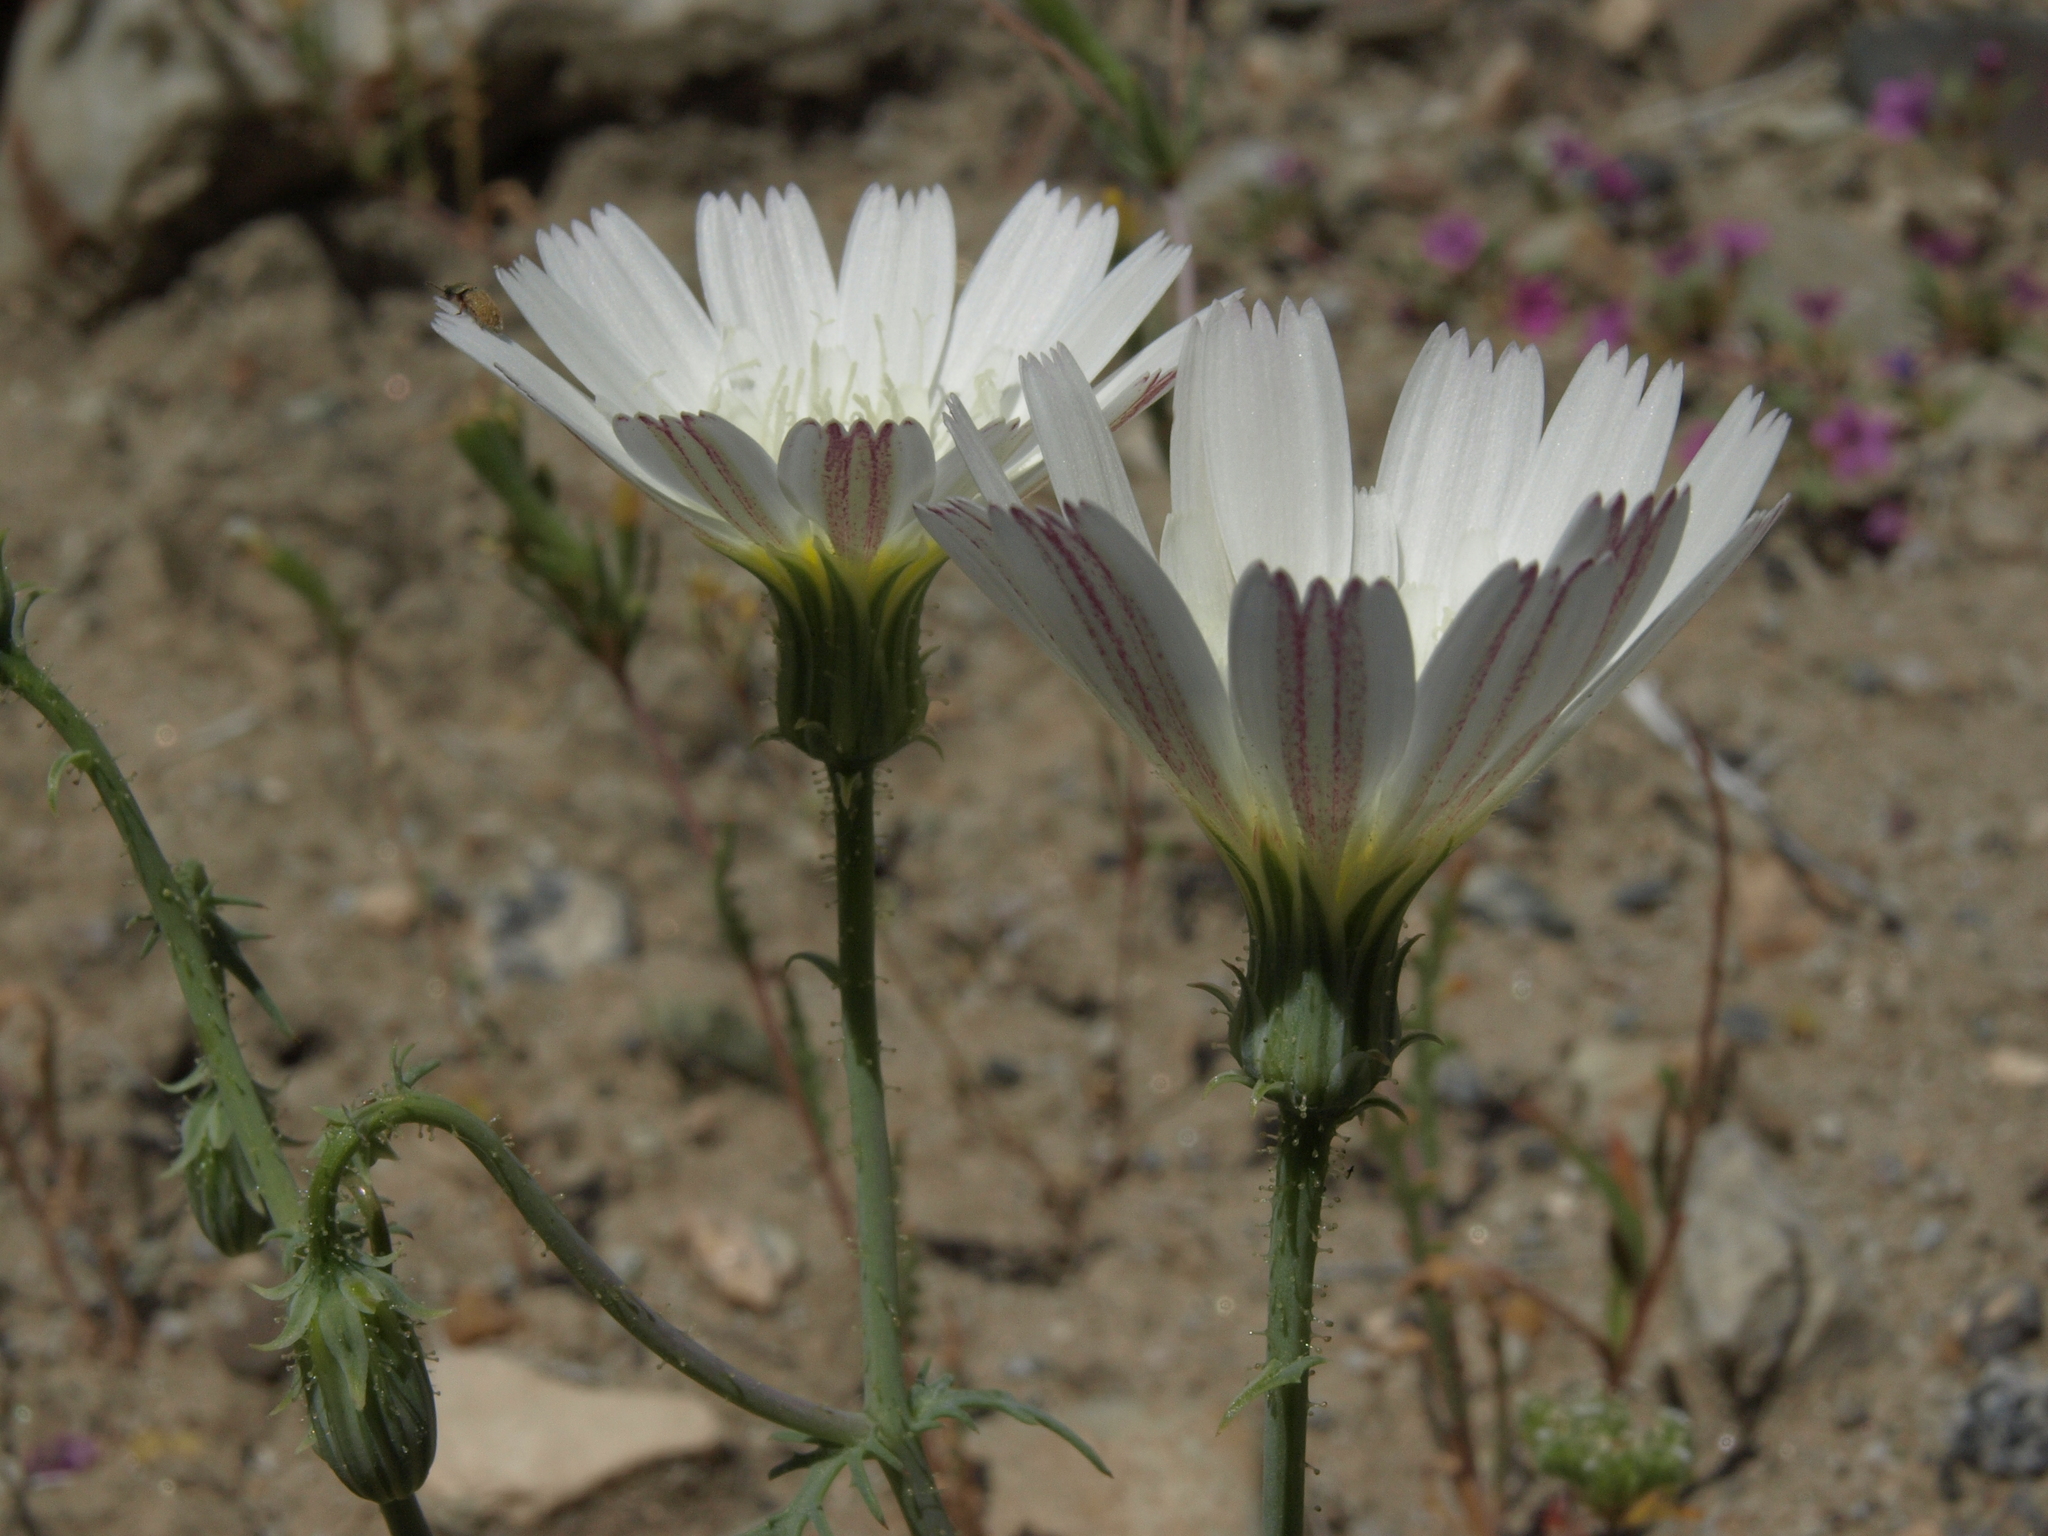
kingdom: Plantae
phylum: Tracheophyta
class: Magnoliopsida
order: Asterales
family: Asteraceae
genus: Calycoseris
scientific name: Calycoseris wrightii
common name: White tackstem
